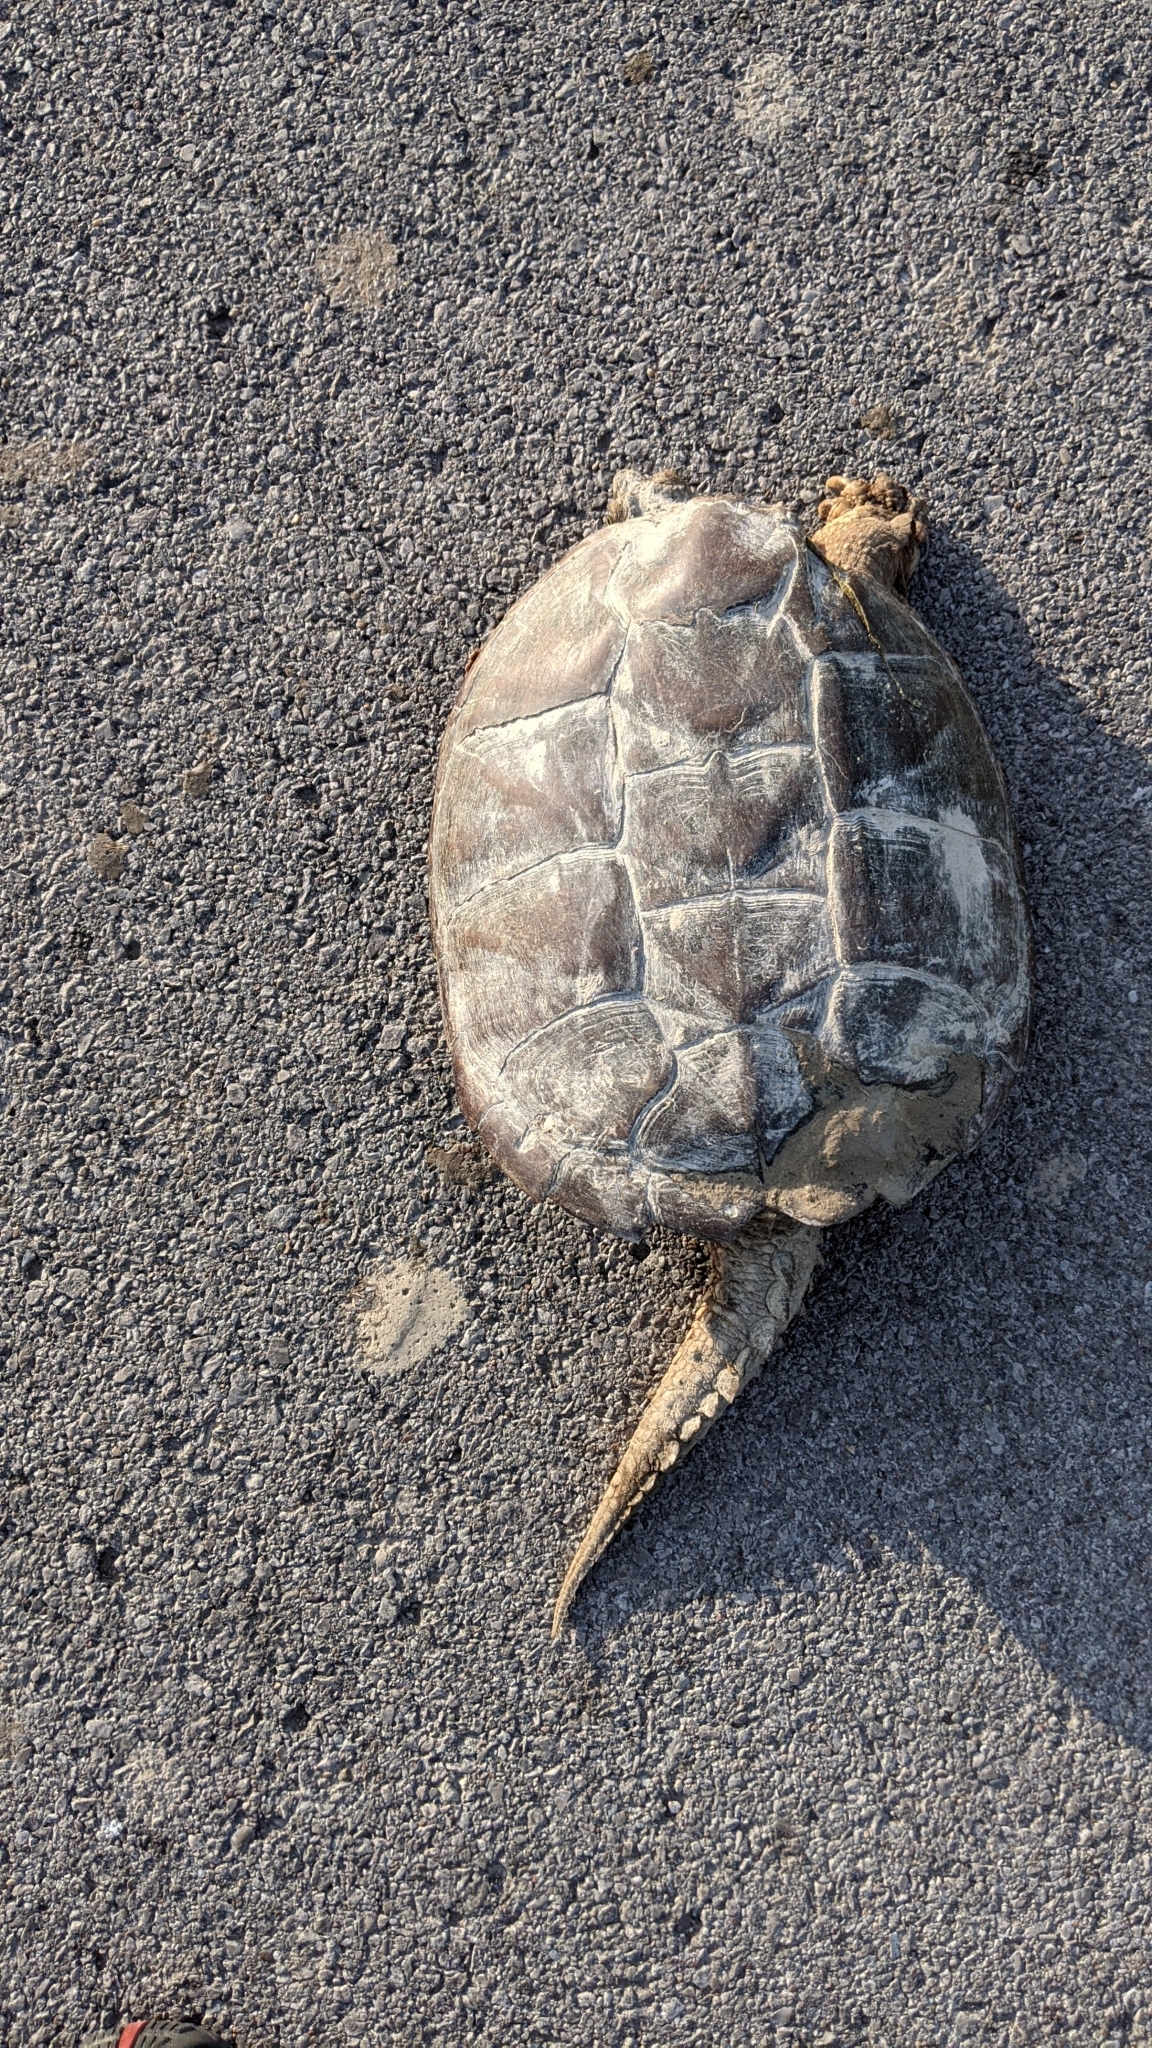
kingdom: Animalia
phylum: Chordata
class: Testudines
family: Chelydridae
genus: Chelydra
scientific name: Chelydra serpentina
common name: Common snapping turtle
